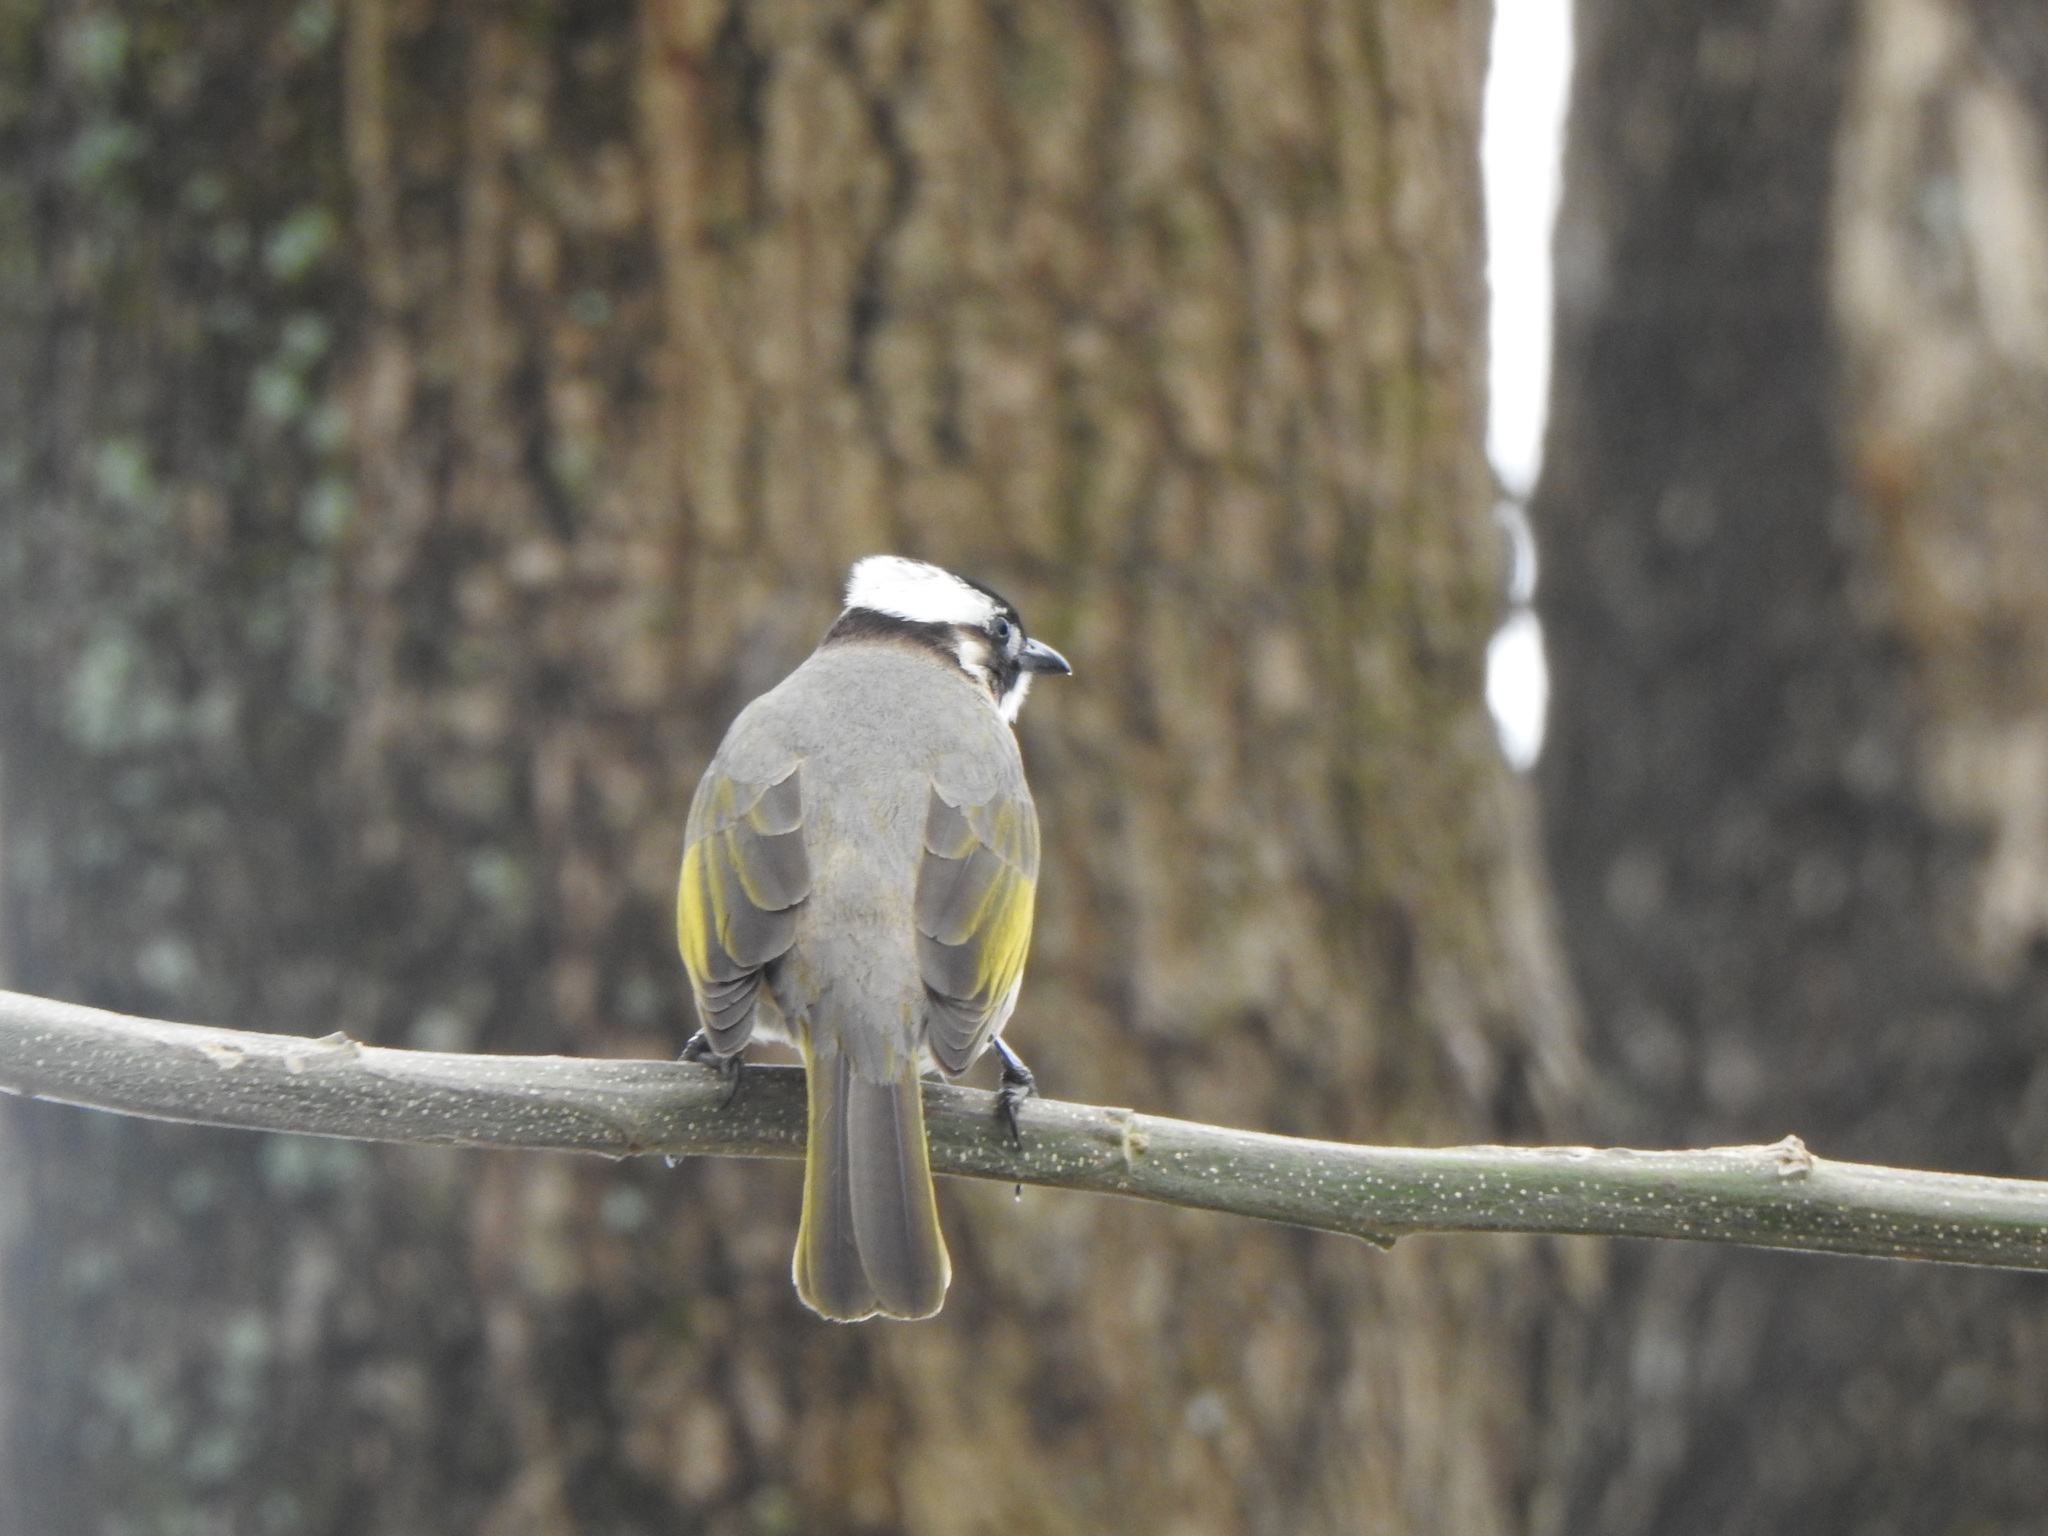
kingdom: Animalia
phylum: Chordata
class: Aves
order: Passeriformes
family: Pycnonotidae
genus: Pycnonotus
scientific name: Pycnonotus sinensis
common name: Light-vented bulbul
